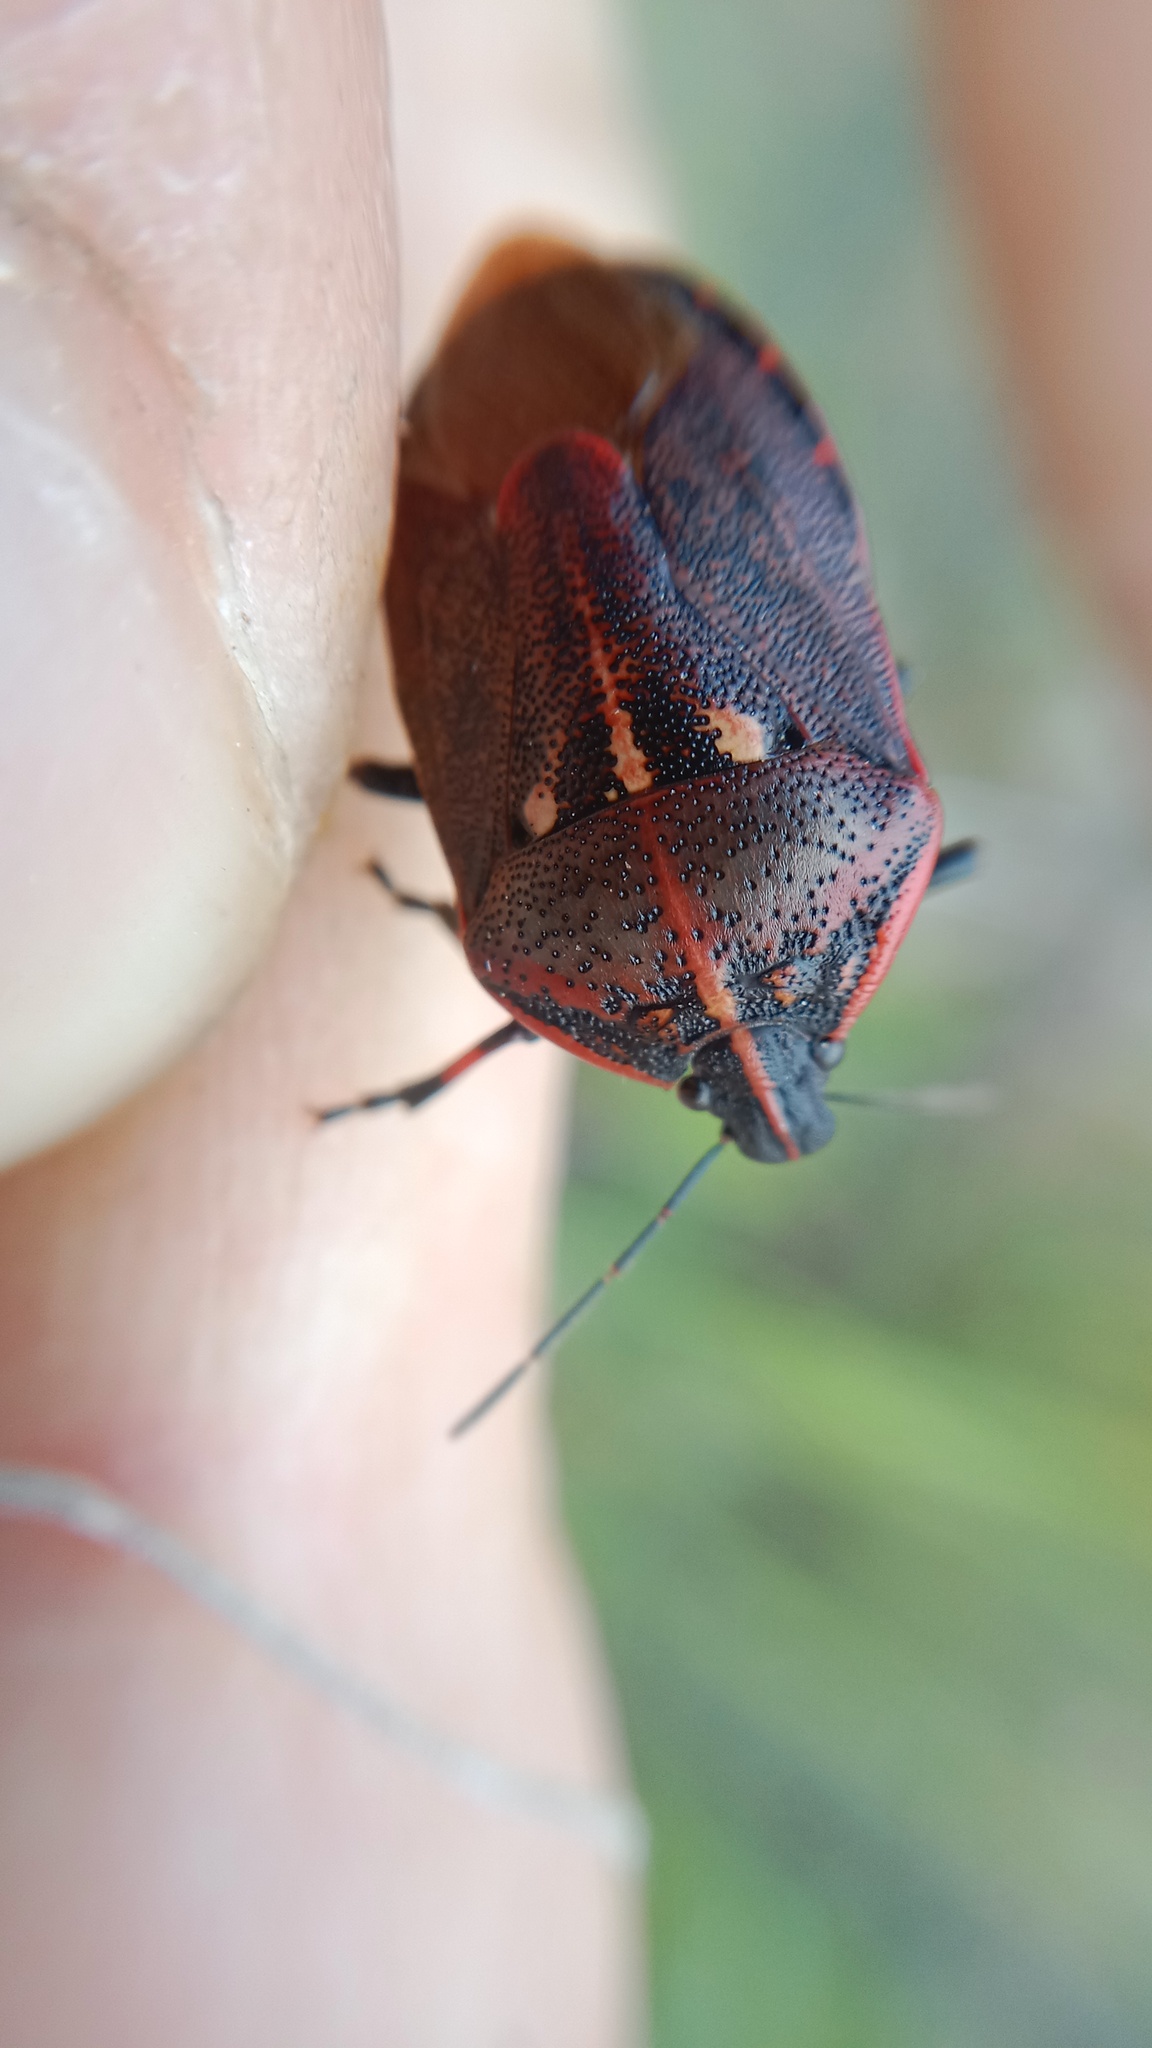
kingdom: Animalia
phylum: Arthropoda
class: Insecta
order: Hemiptera
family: Pentatomidae
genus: Jalla
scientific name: Jalla dumosa
